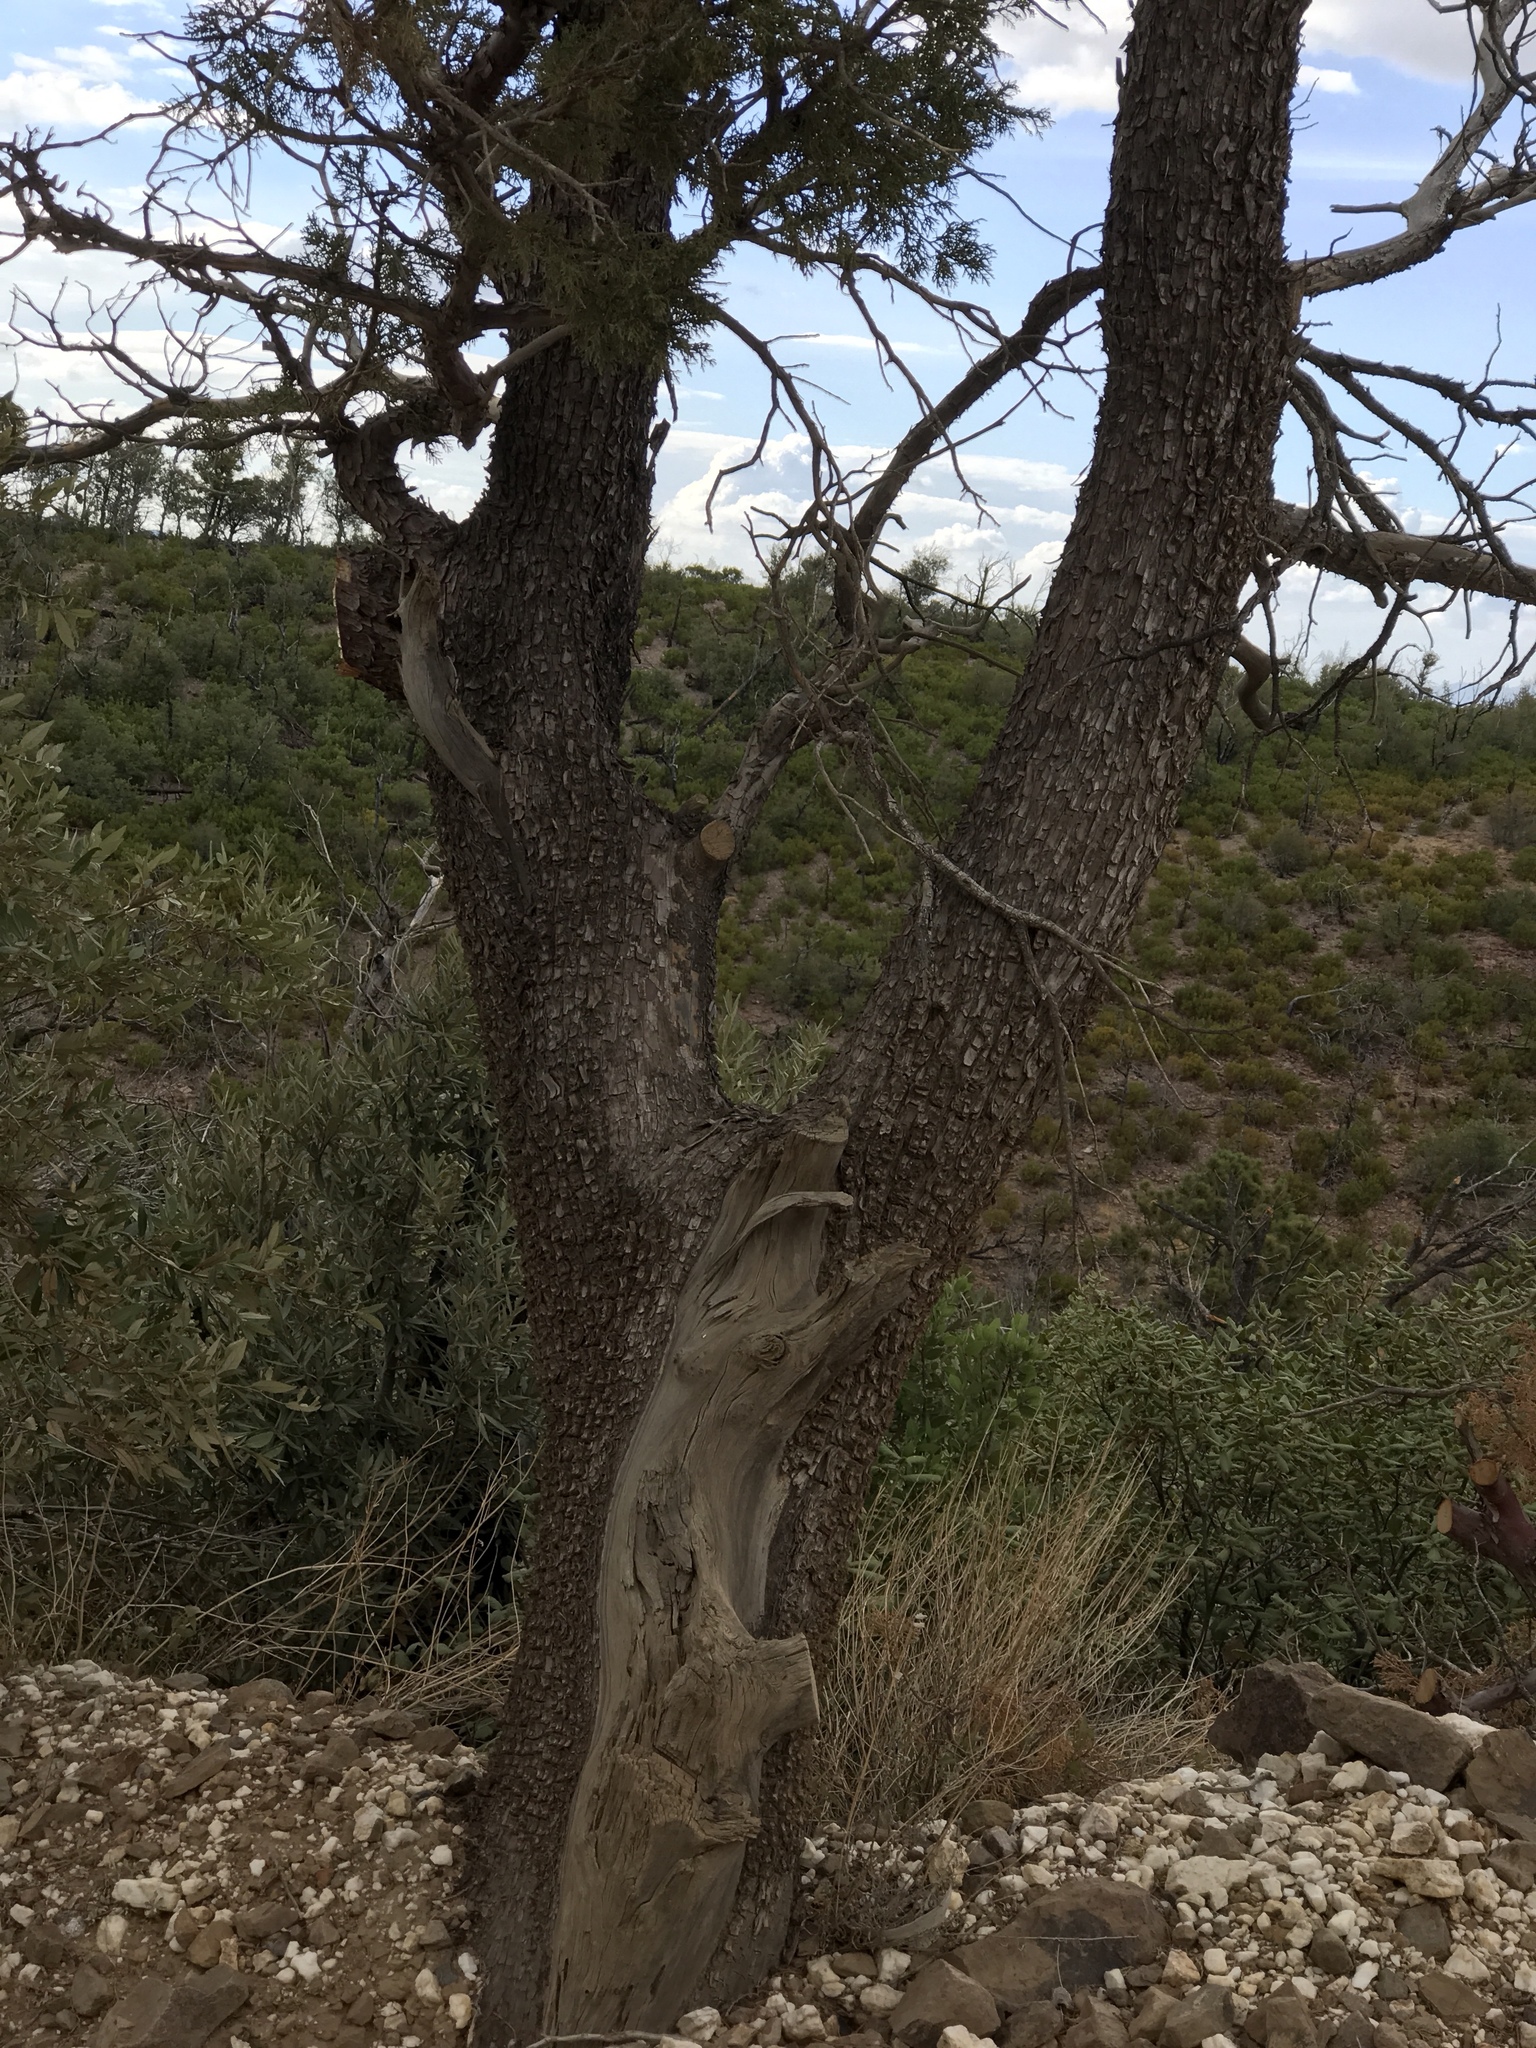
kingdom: Plantae
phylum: Tracheophyta
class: Pinopsida
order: Pinales
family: Cupressaceae
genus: Juniperus
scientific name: Juniperus deppeana
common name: Alligator juniper
